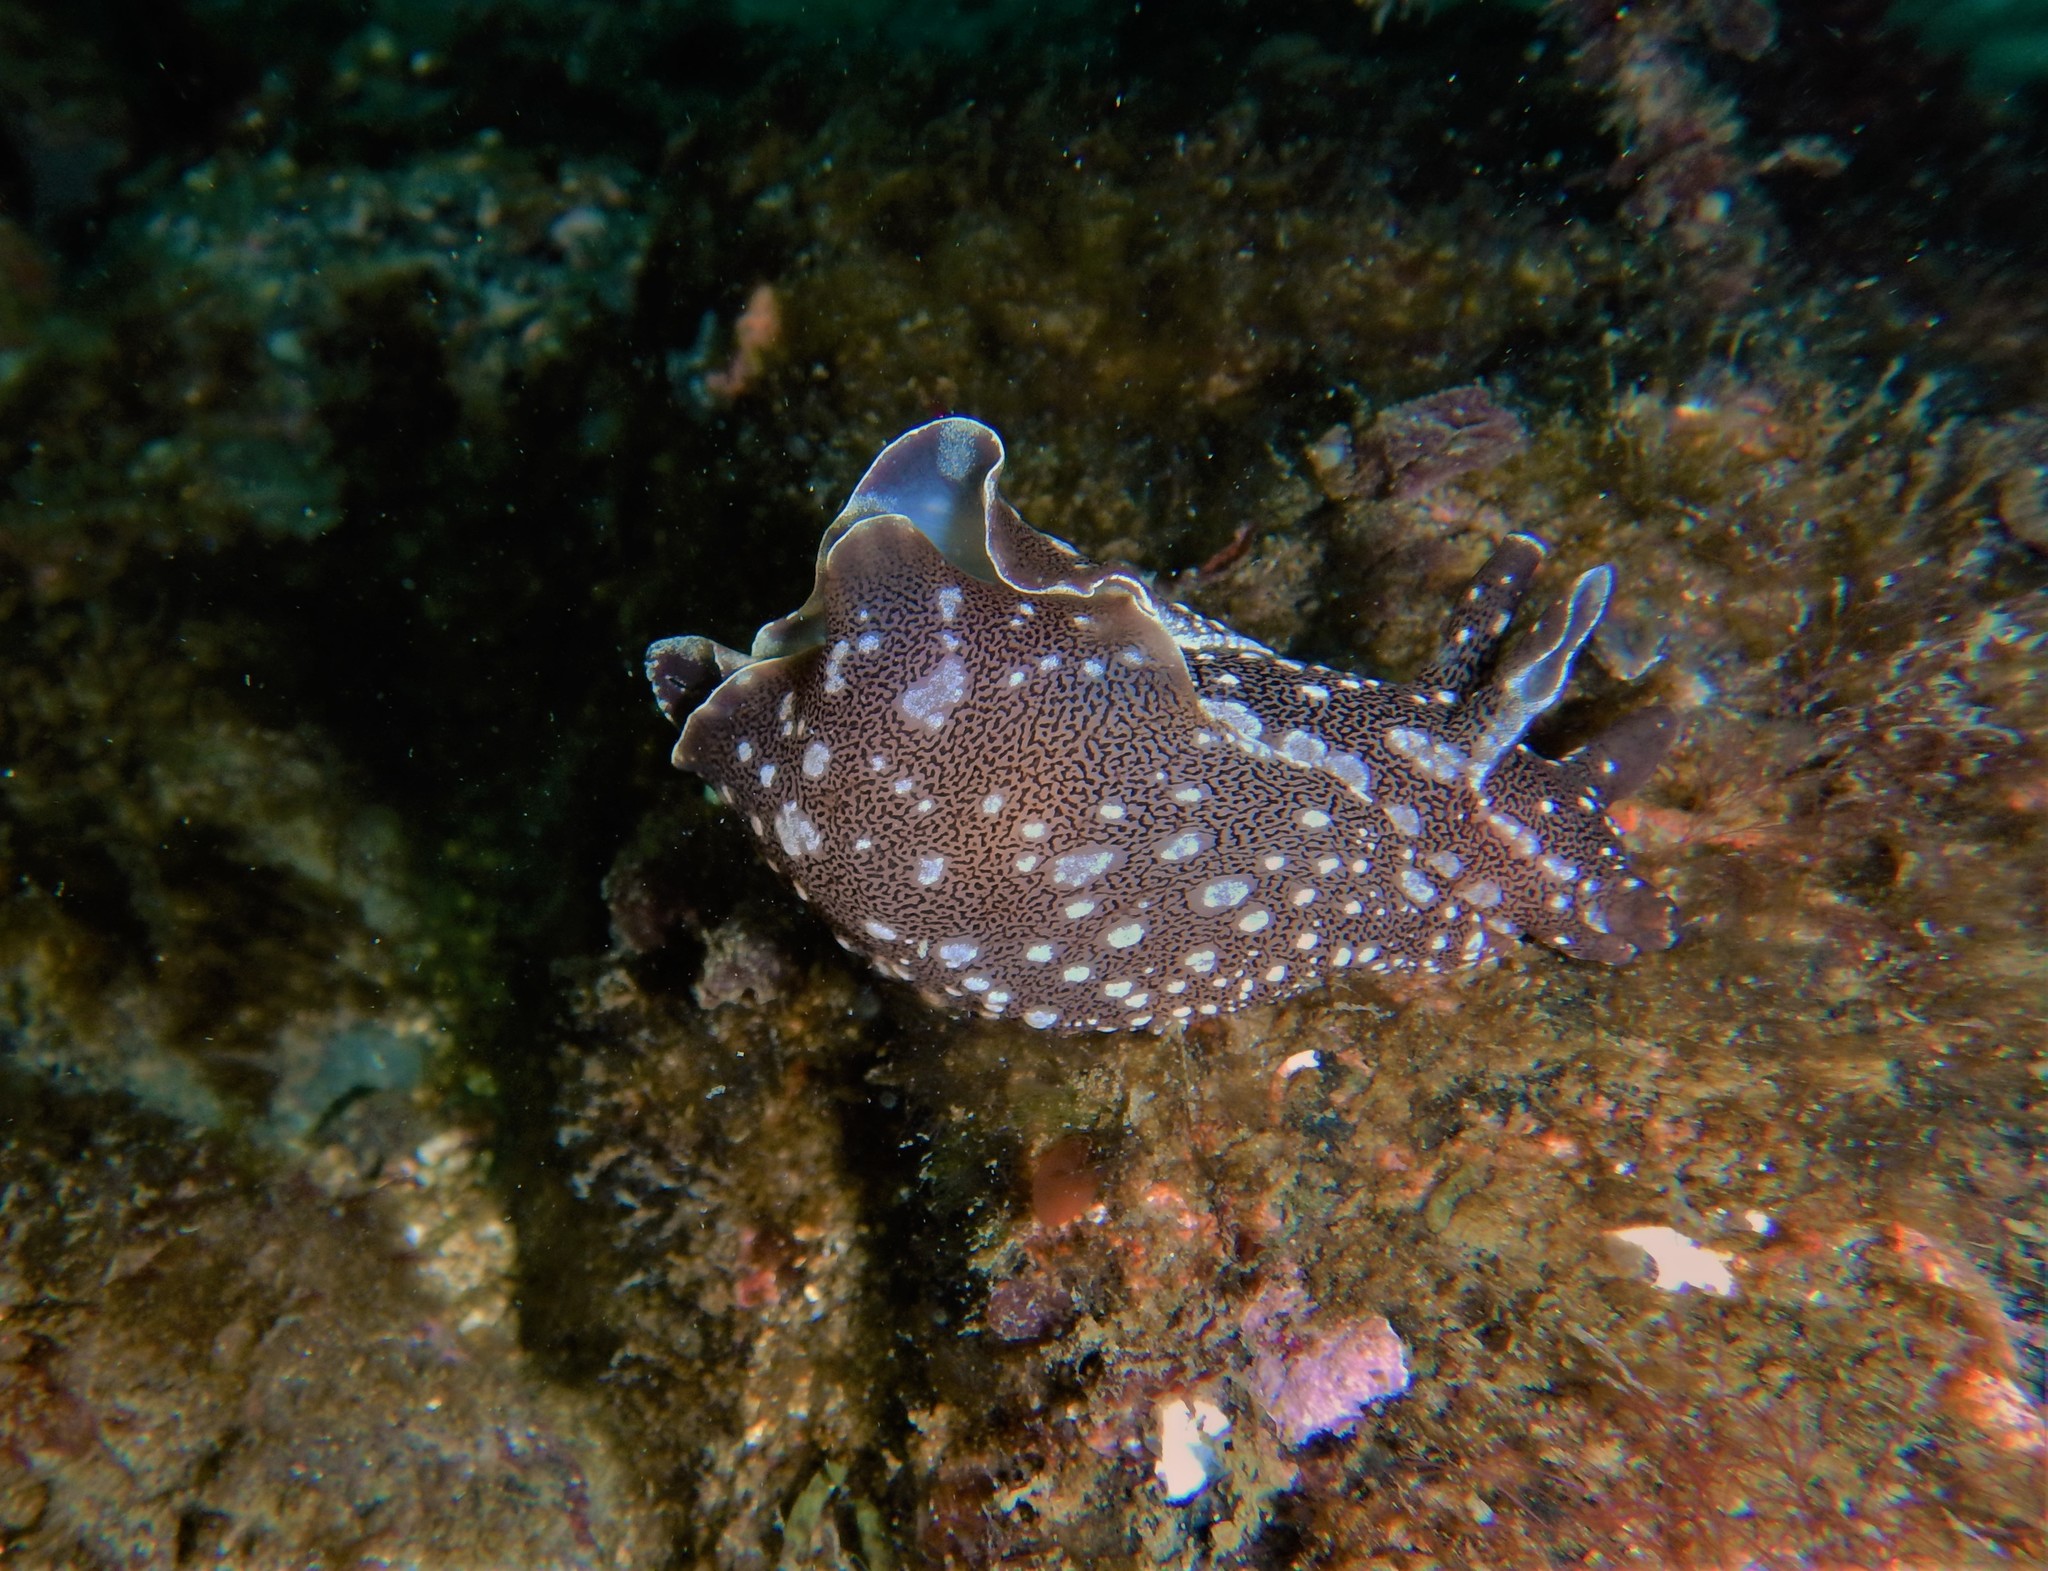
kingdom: Animalia
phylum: Mollusca
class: Gastropoda
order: Aplysiida
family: Aplysiidae
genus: Aplysia
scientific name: Aplysia punctata
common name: Common sea hare
